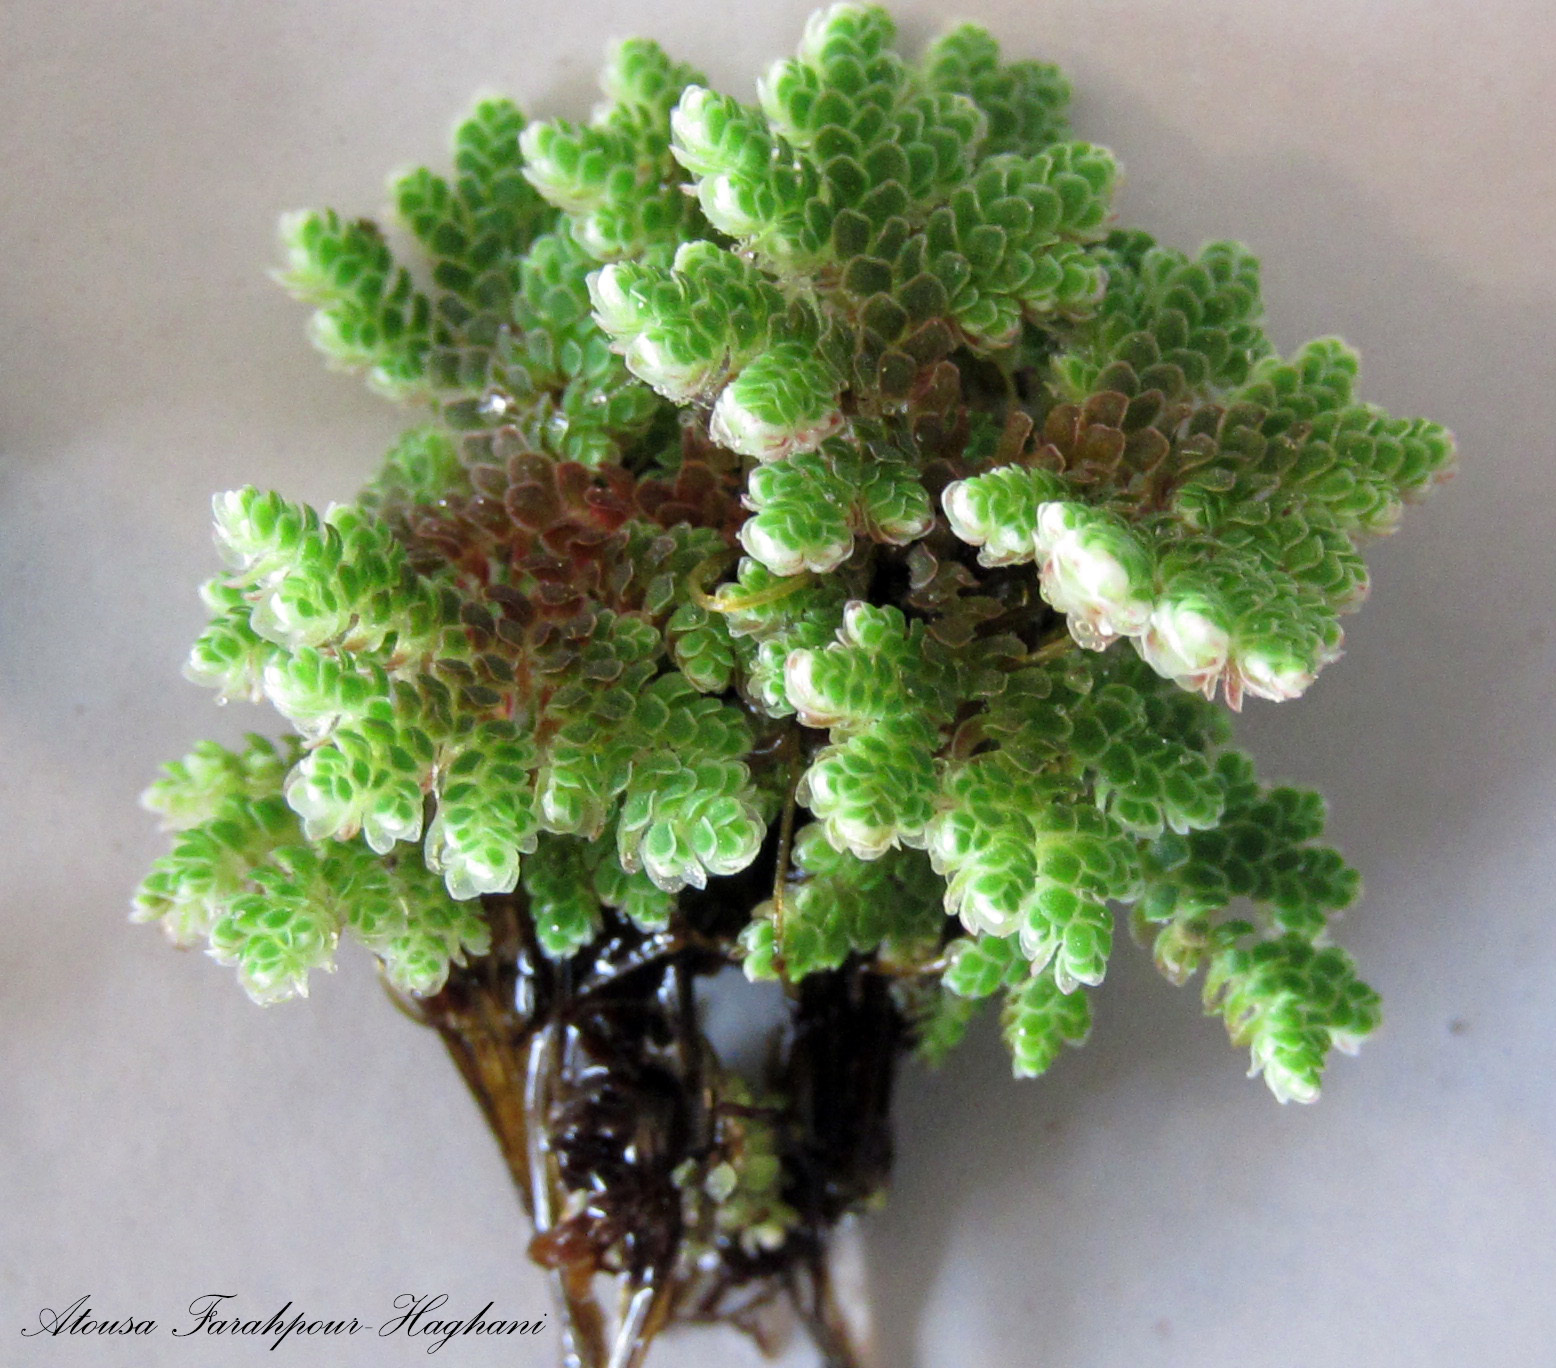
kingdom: Plantae
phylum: Tracheophyta
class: Polypodiopsida
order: Salviniales
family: Salviniaceae
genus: Azolla
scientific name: Azolla filiculoides
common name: Water fern
